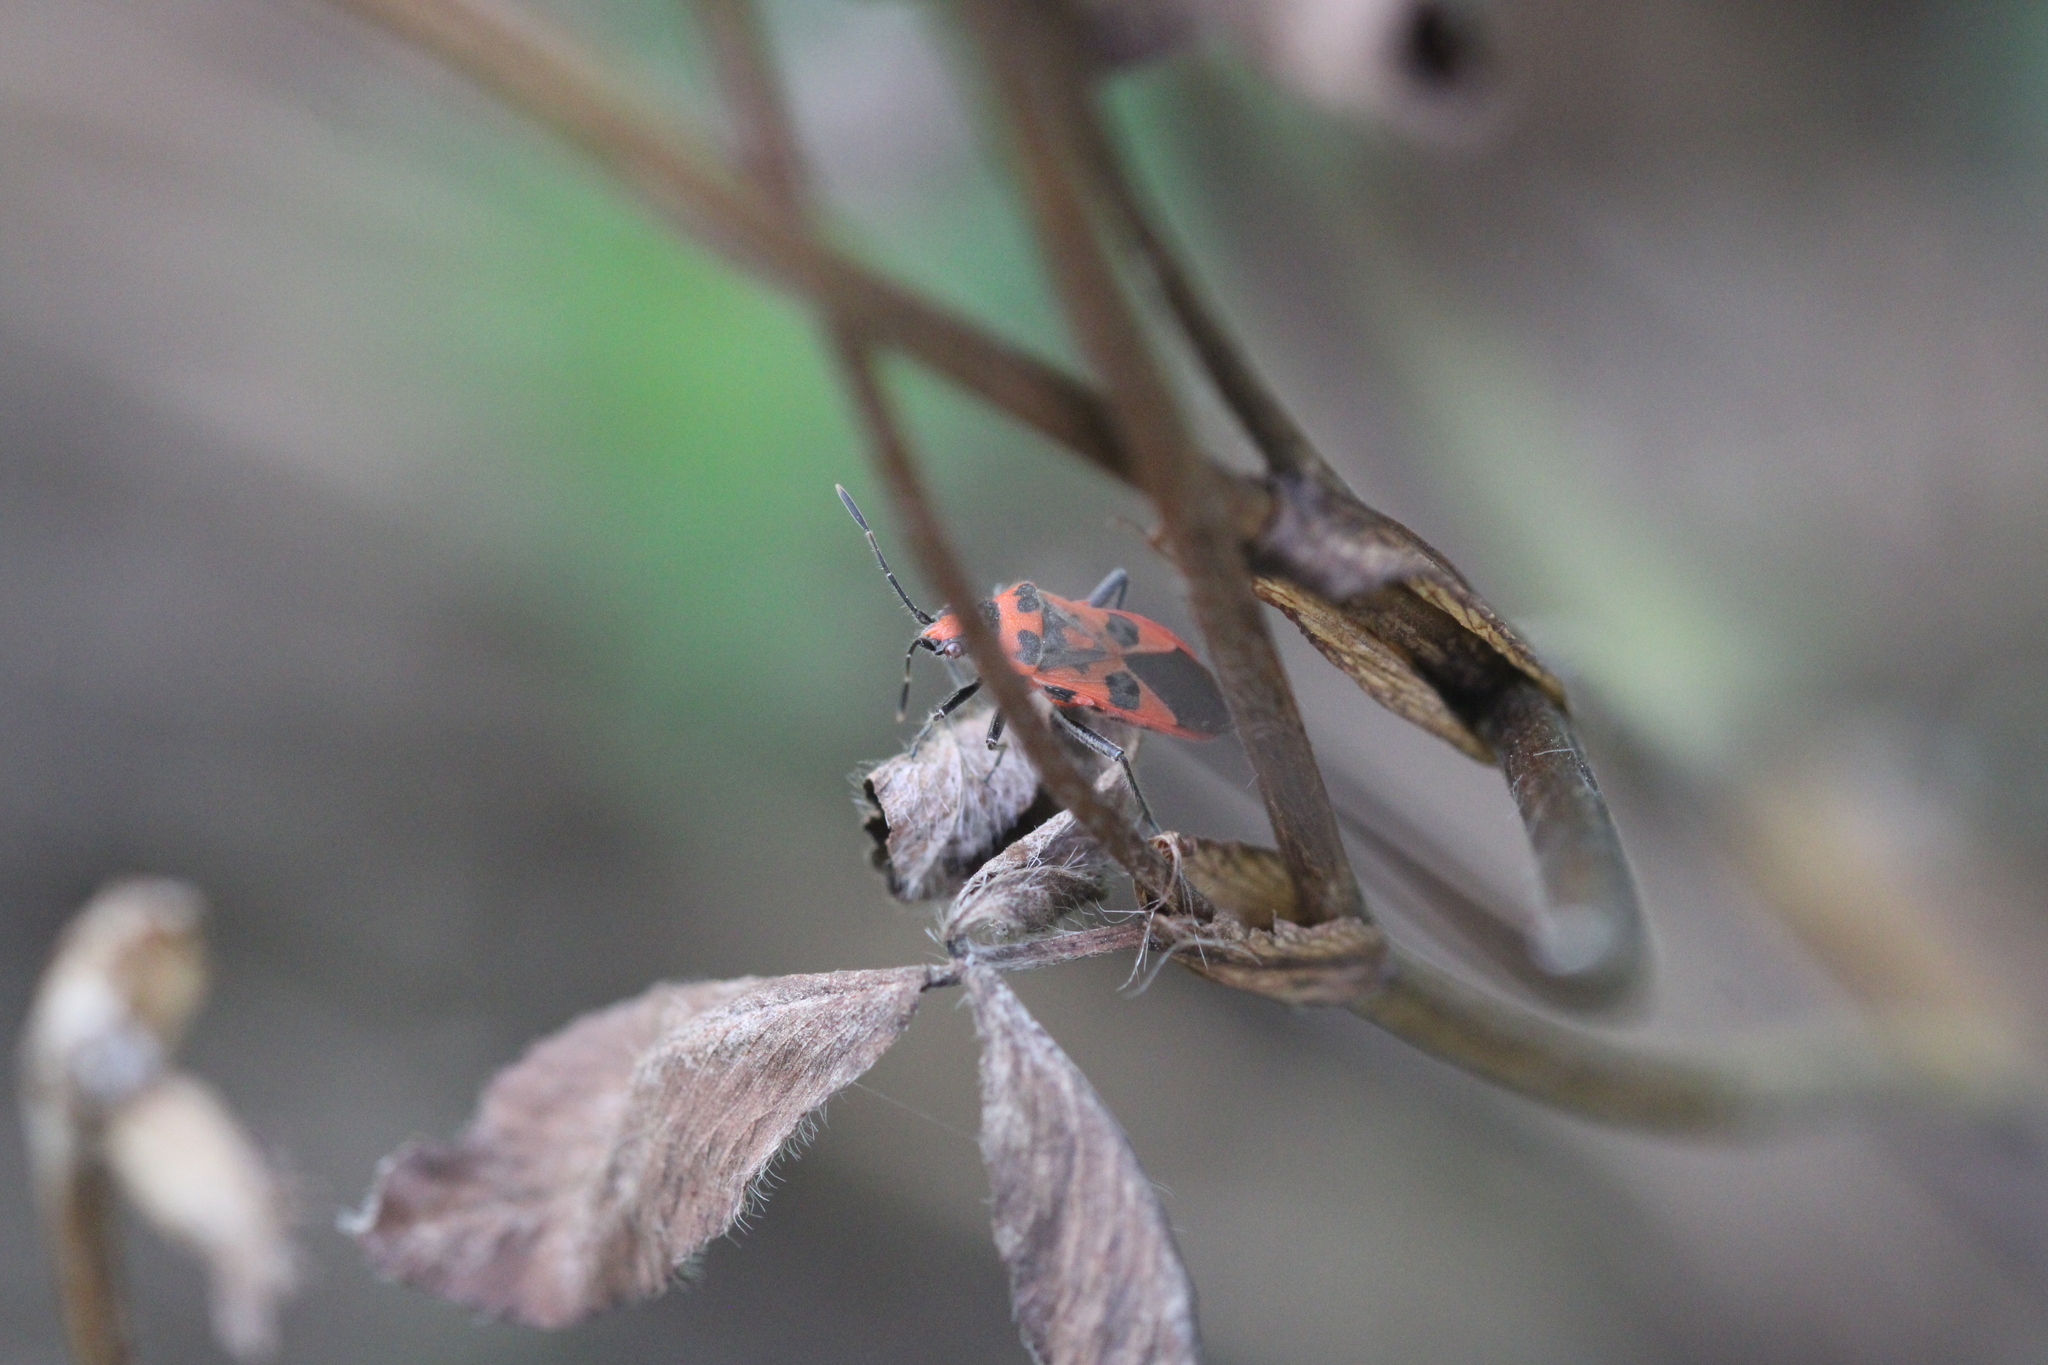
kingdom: Animalia
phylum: Arthropoda
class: Insecta
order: Hemiptera
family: Rhopalidae
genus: Corizus
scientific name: Corizus hyoscyami
